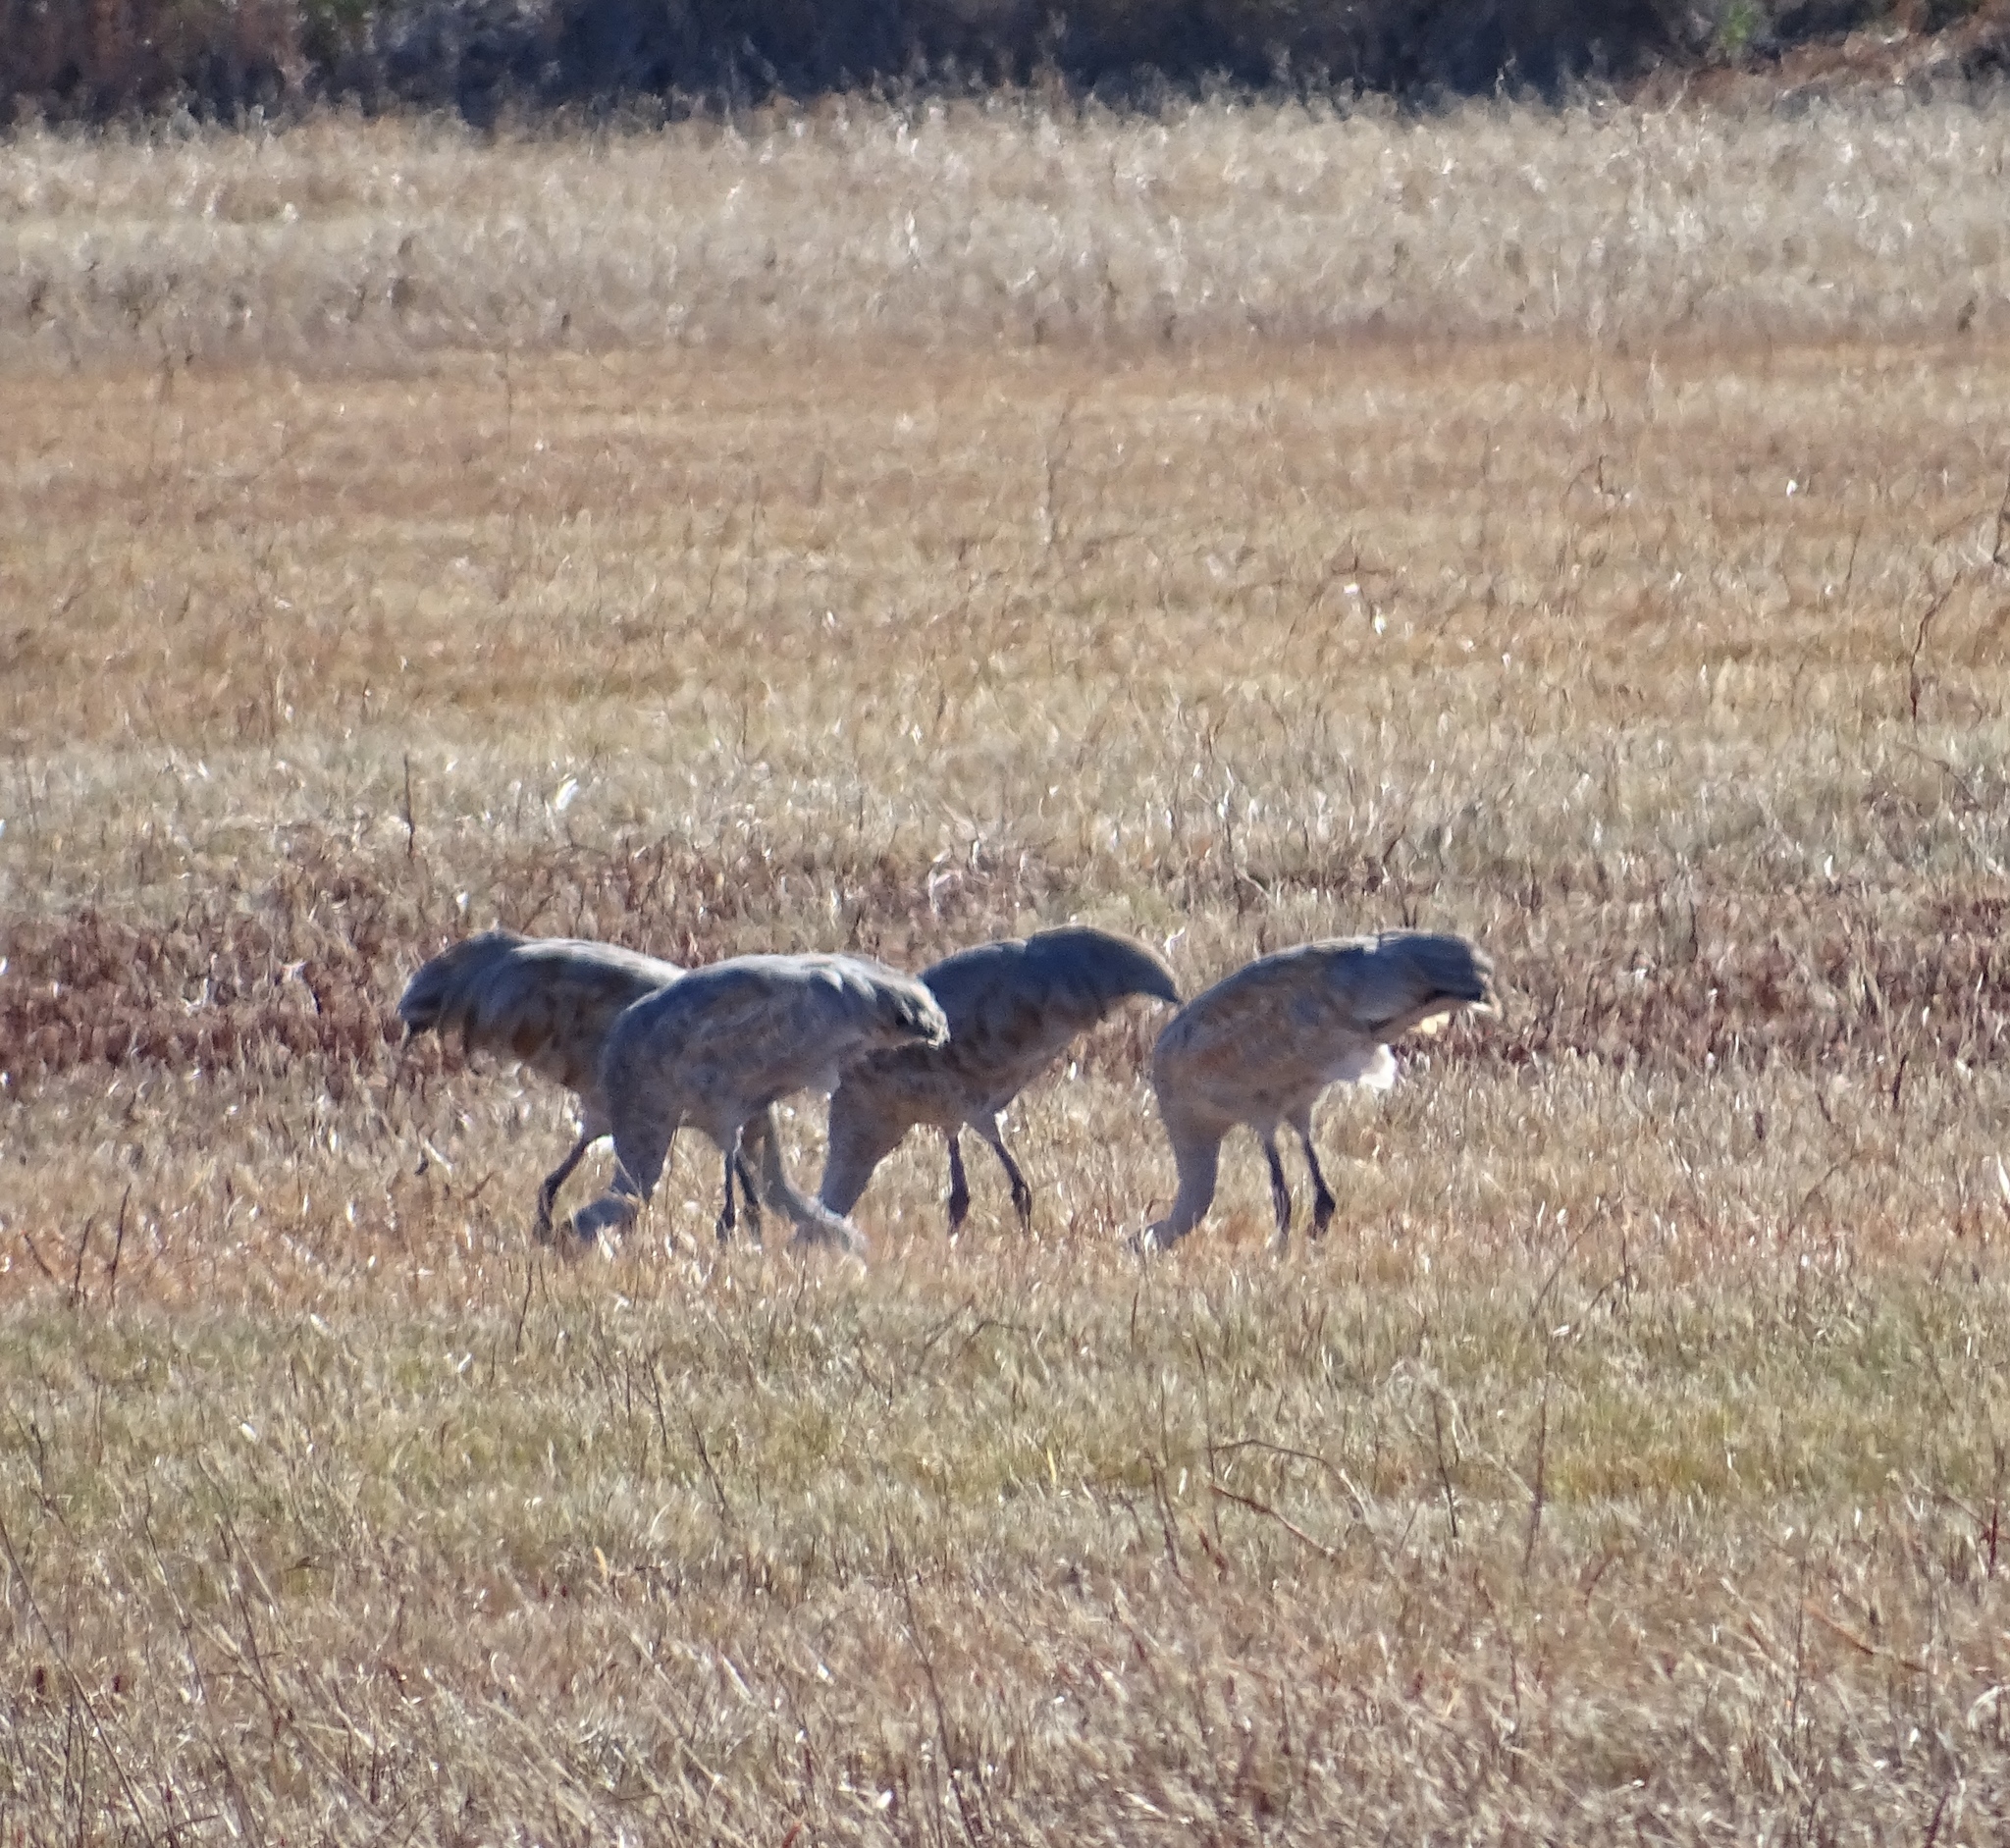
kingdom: Animalia
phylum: Chordata
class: Aves
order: Gruiformes
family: Gruidae
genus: Grus
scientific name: Grus canadensis
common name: Sandhill crane
